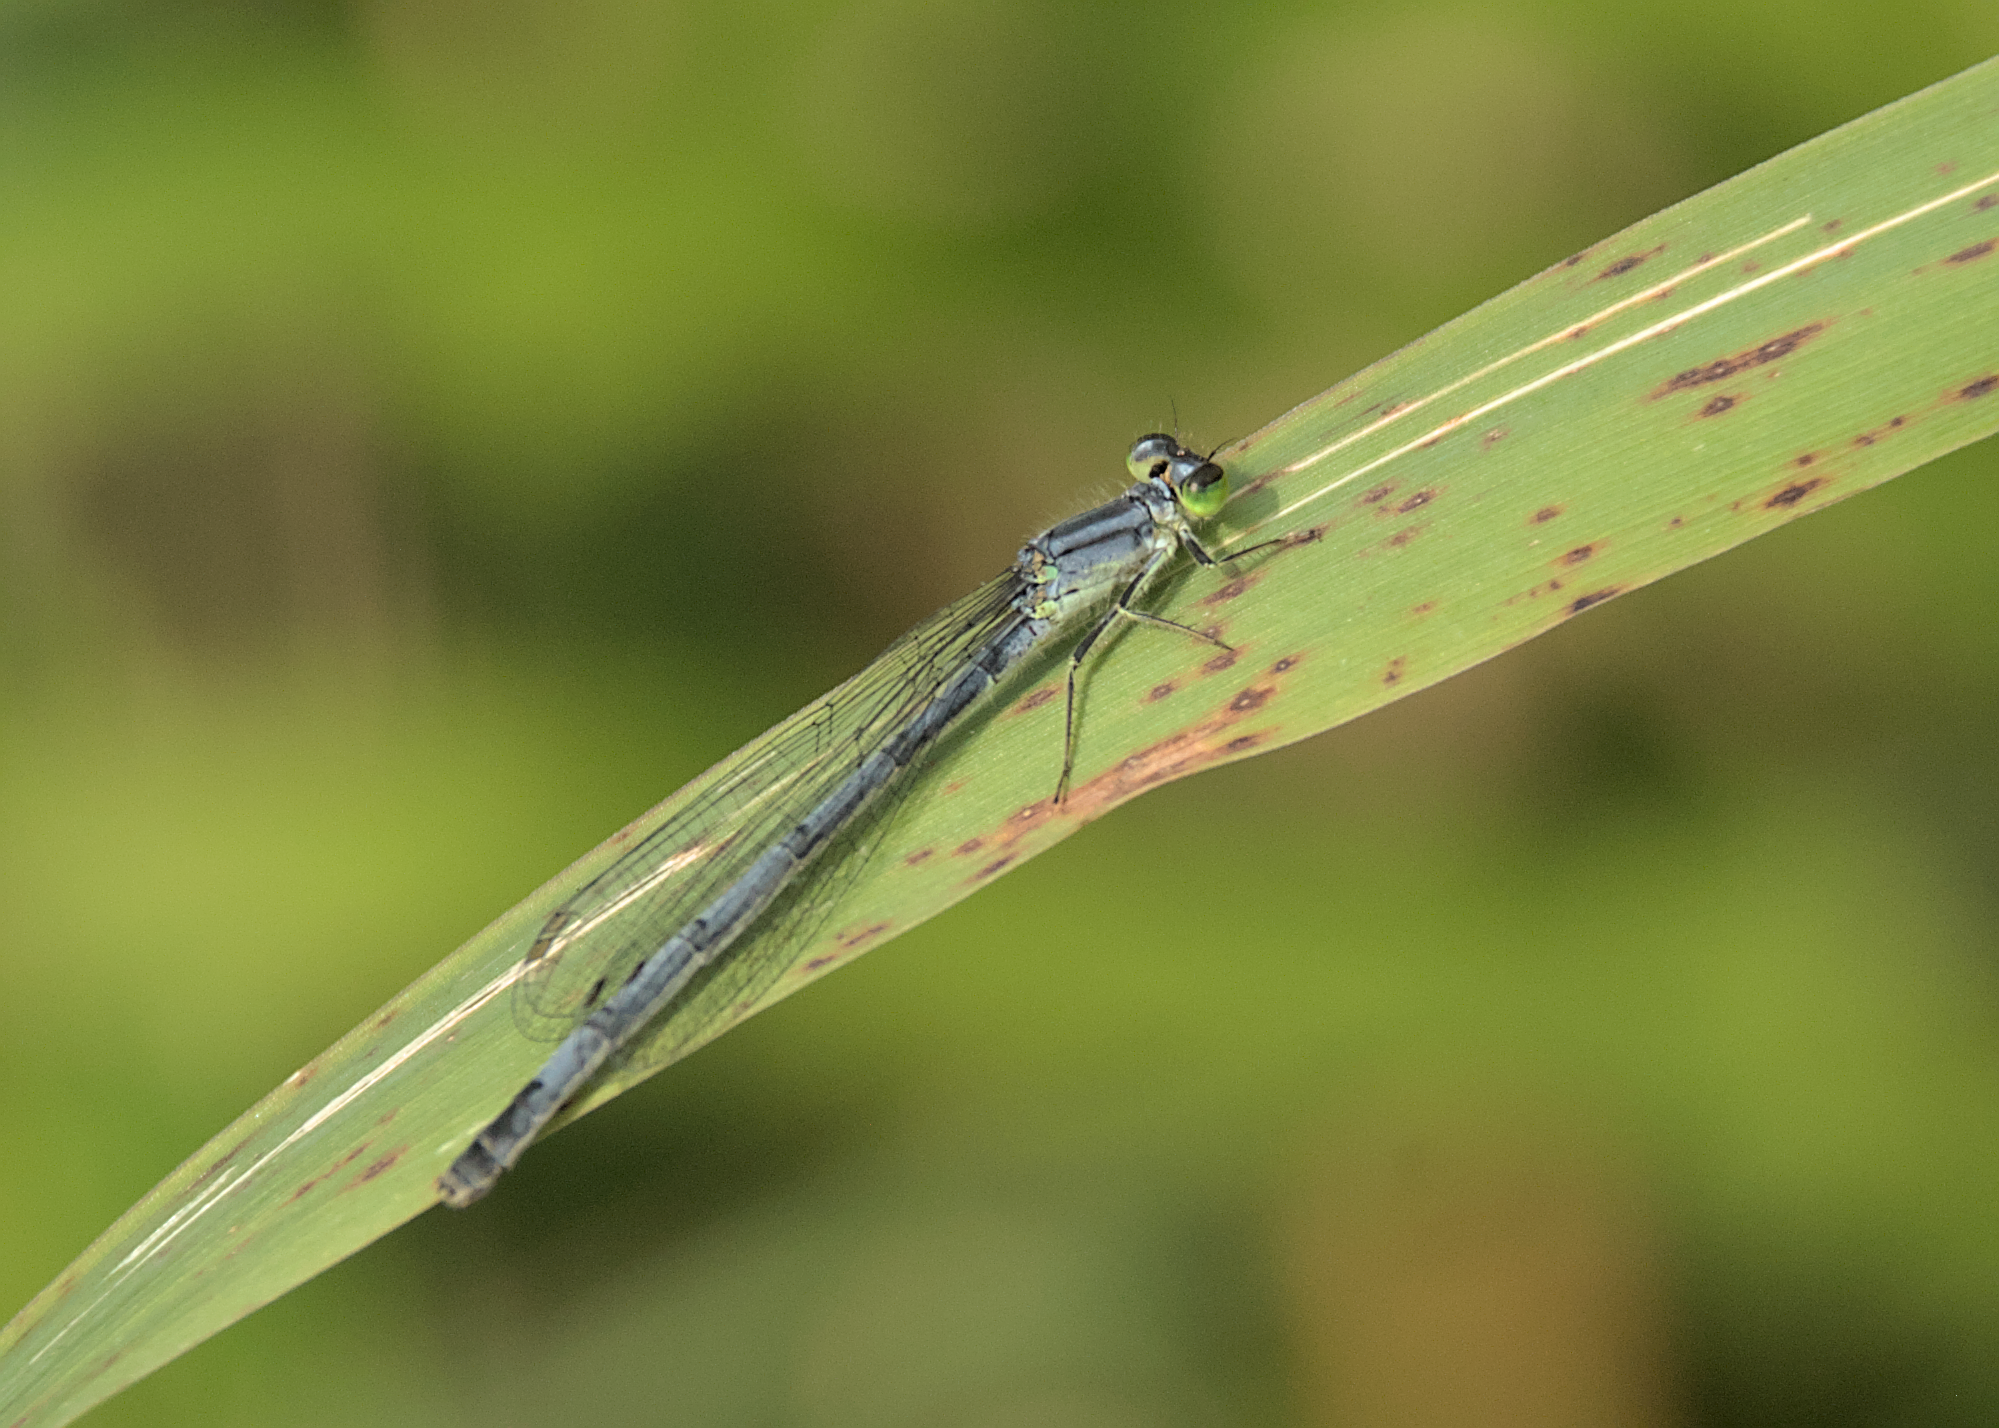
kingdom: Animalia
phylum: Arthropoda
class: Insecta
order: Odonata
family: Coenagrionidae
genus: Ischnura
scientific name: Ischnura verticalis
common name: Eastern forktail
